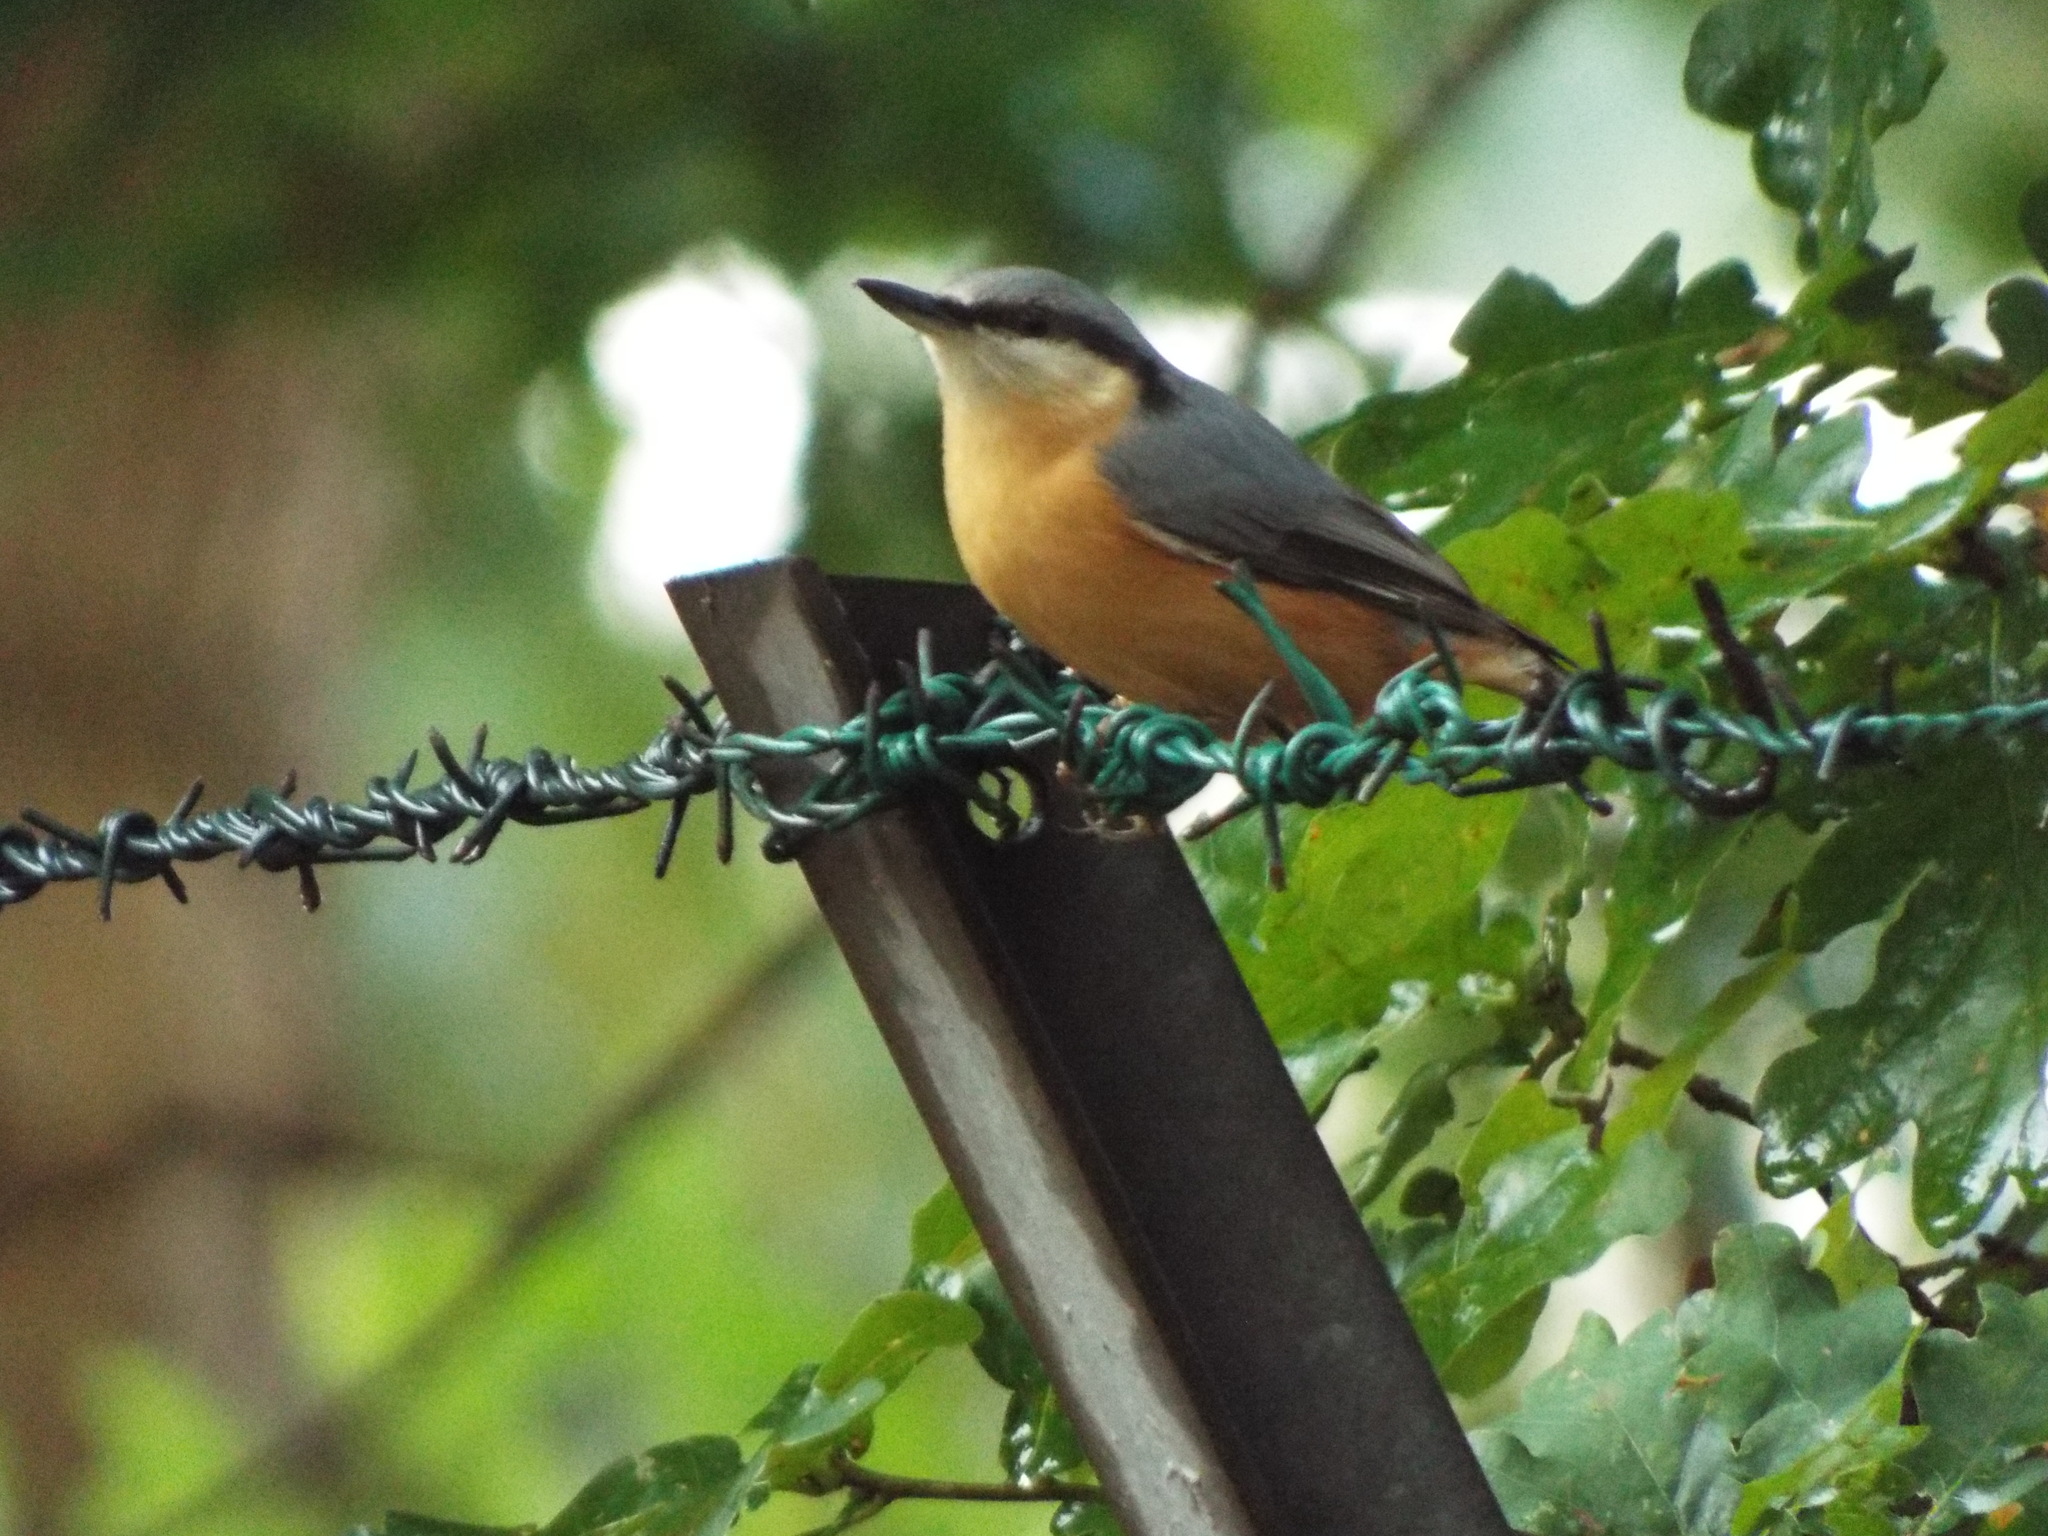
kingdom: Animalia
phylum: Chordata
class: Aves
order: Passeriformes
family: Sittidae
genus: Sitta
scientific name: Sitta europaea
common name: Eurasian nuthatch
